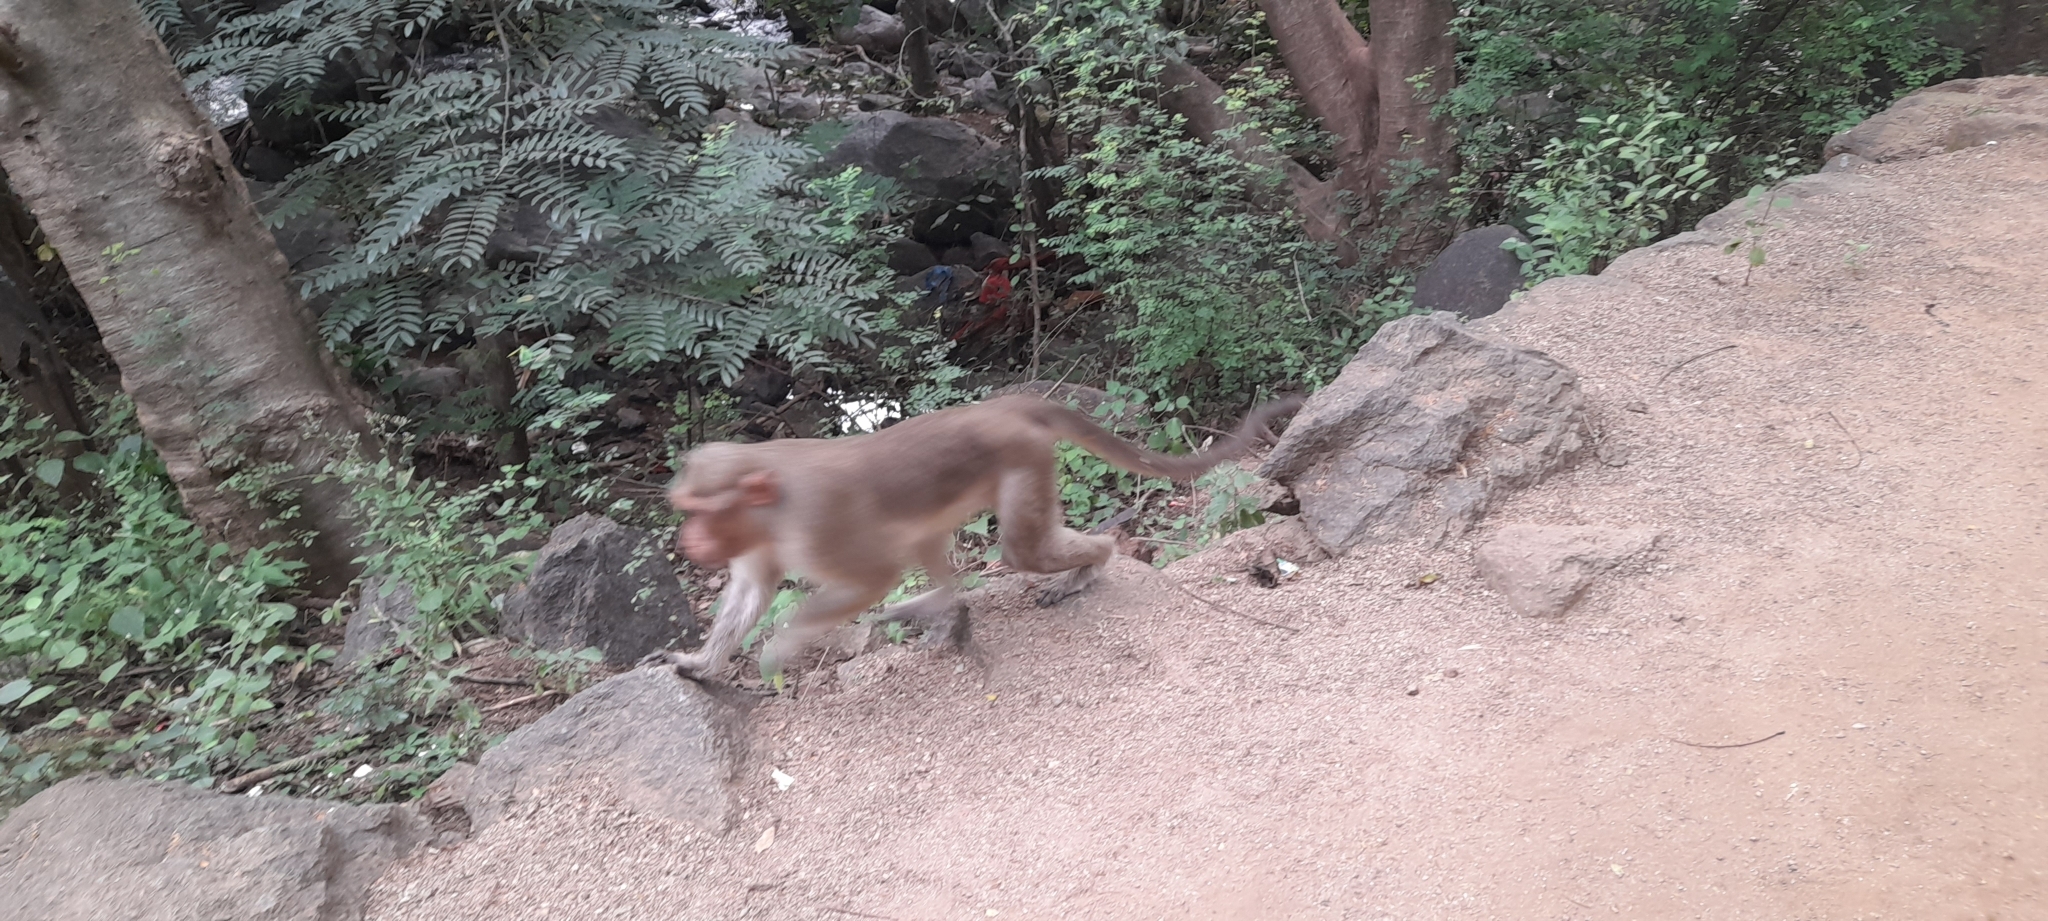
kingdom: Animalia
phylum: Chordata
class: Mammalia
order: Primates
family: Cercopithecidae
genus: Macaca
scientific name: Macaca radiata
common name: Bonnet macaque
